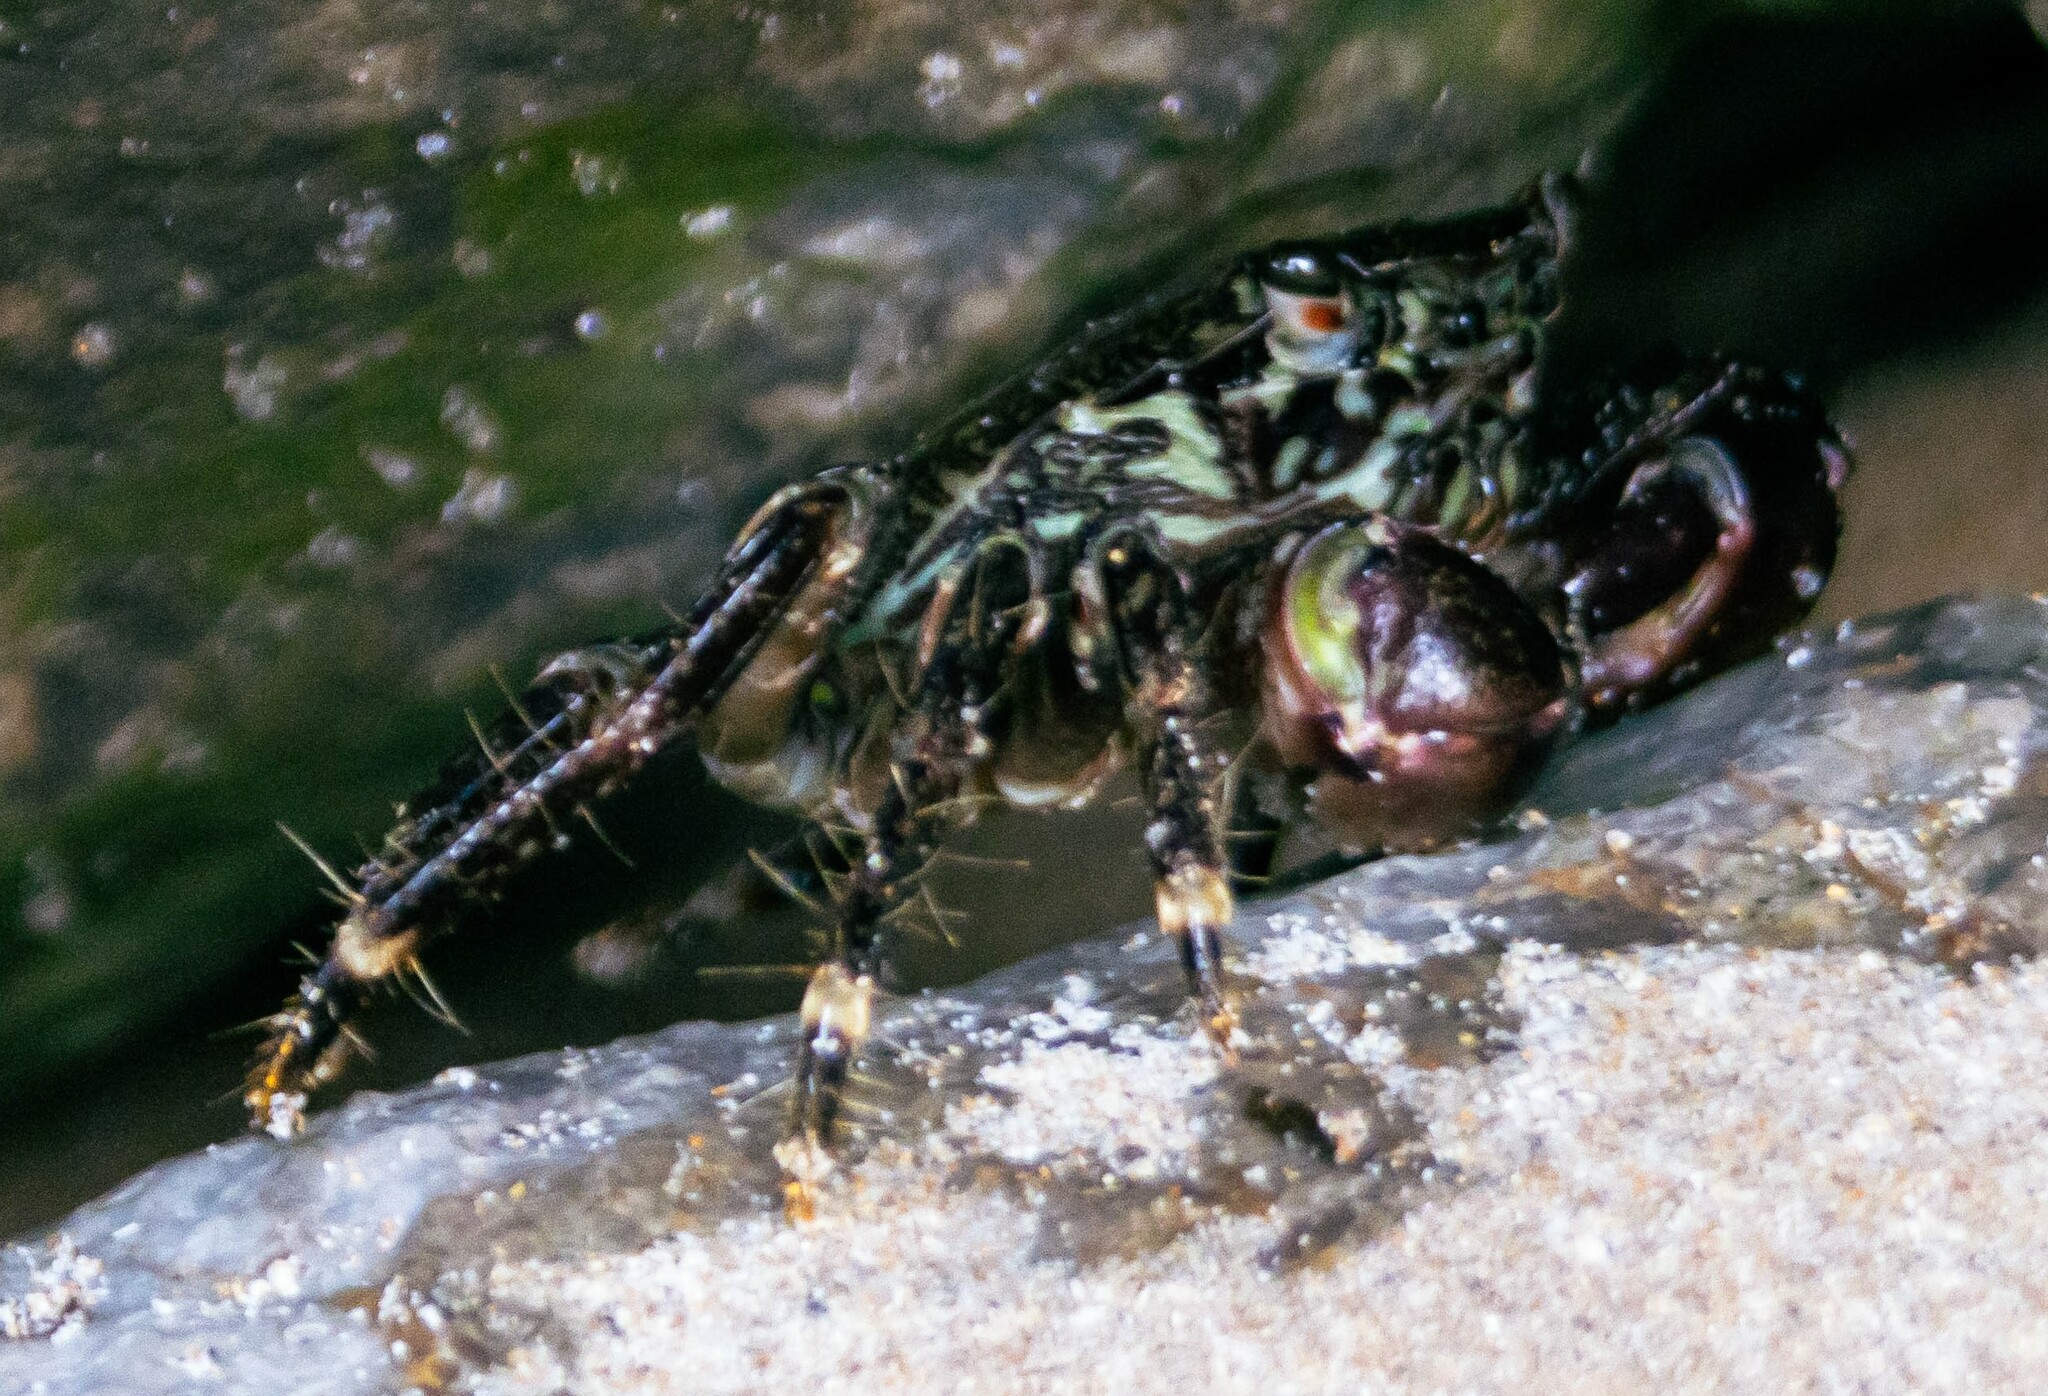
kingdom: Animalia
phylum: Arthropoda
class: Malacostraca
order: Decapoda
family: Grapsidae
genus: Pachygrapsus
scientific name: Pachygrapsus marmoratus
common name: Marbled rock crab
